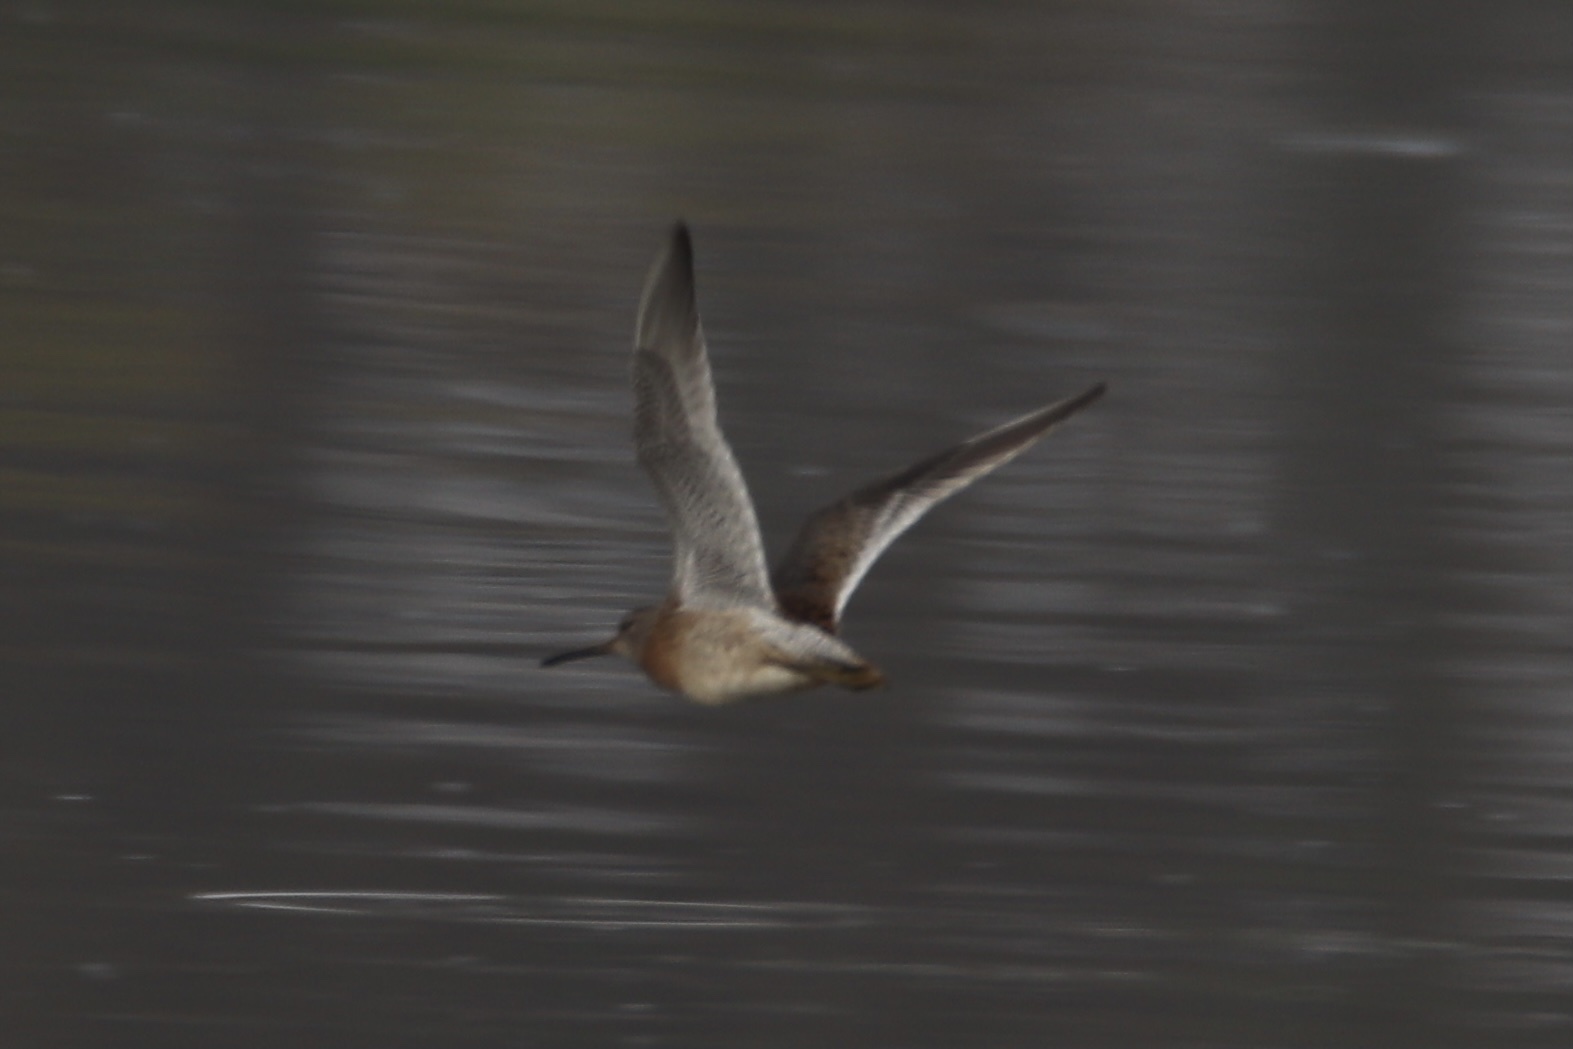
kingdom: Animalia
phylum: Chordata
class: Aves
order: Charadriiformes
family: Scolopacidae
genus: Limnodromus
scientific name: Limnodromus
